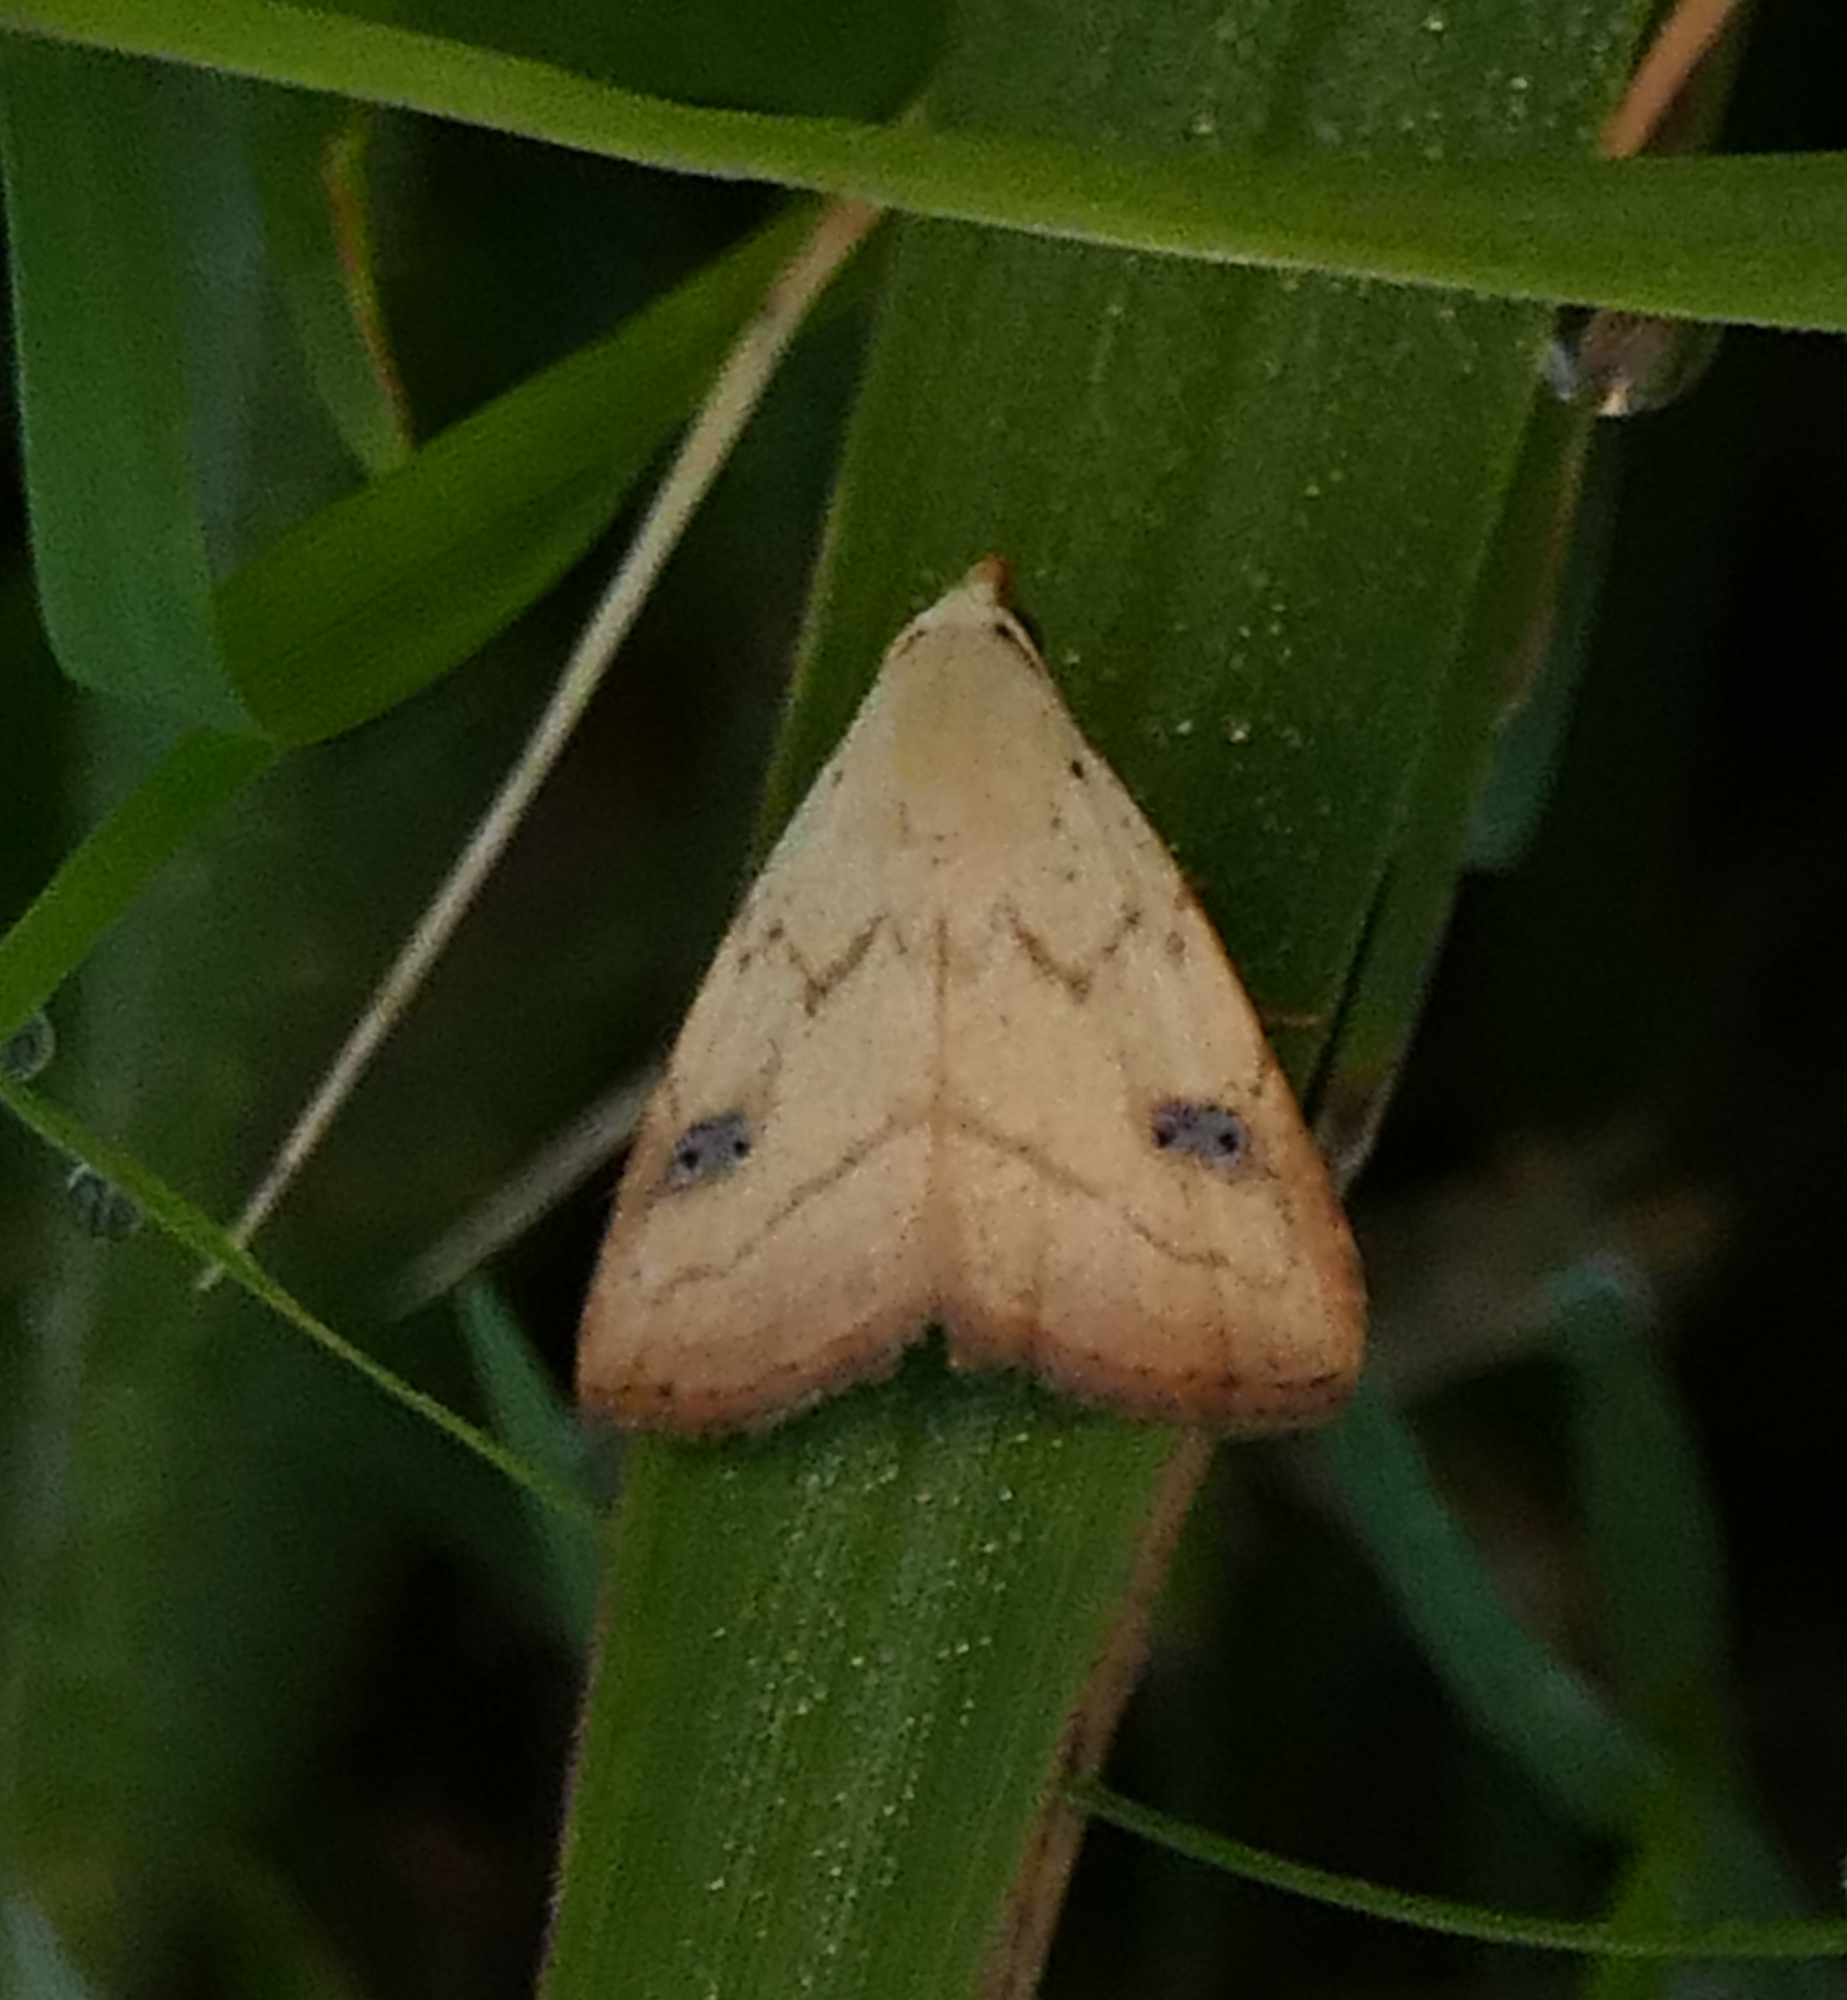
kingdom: Animalia
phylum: Arthropoda
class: Insecta
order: Lepidoptera
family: Erebidae
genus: Rivula
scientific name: Rivula propinqualis
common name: Spotted grass moth
